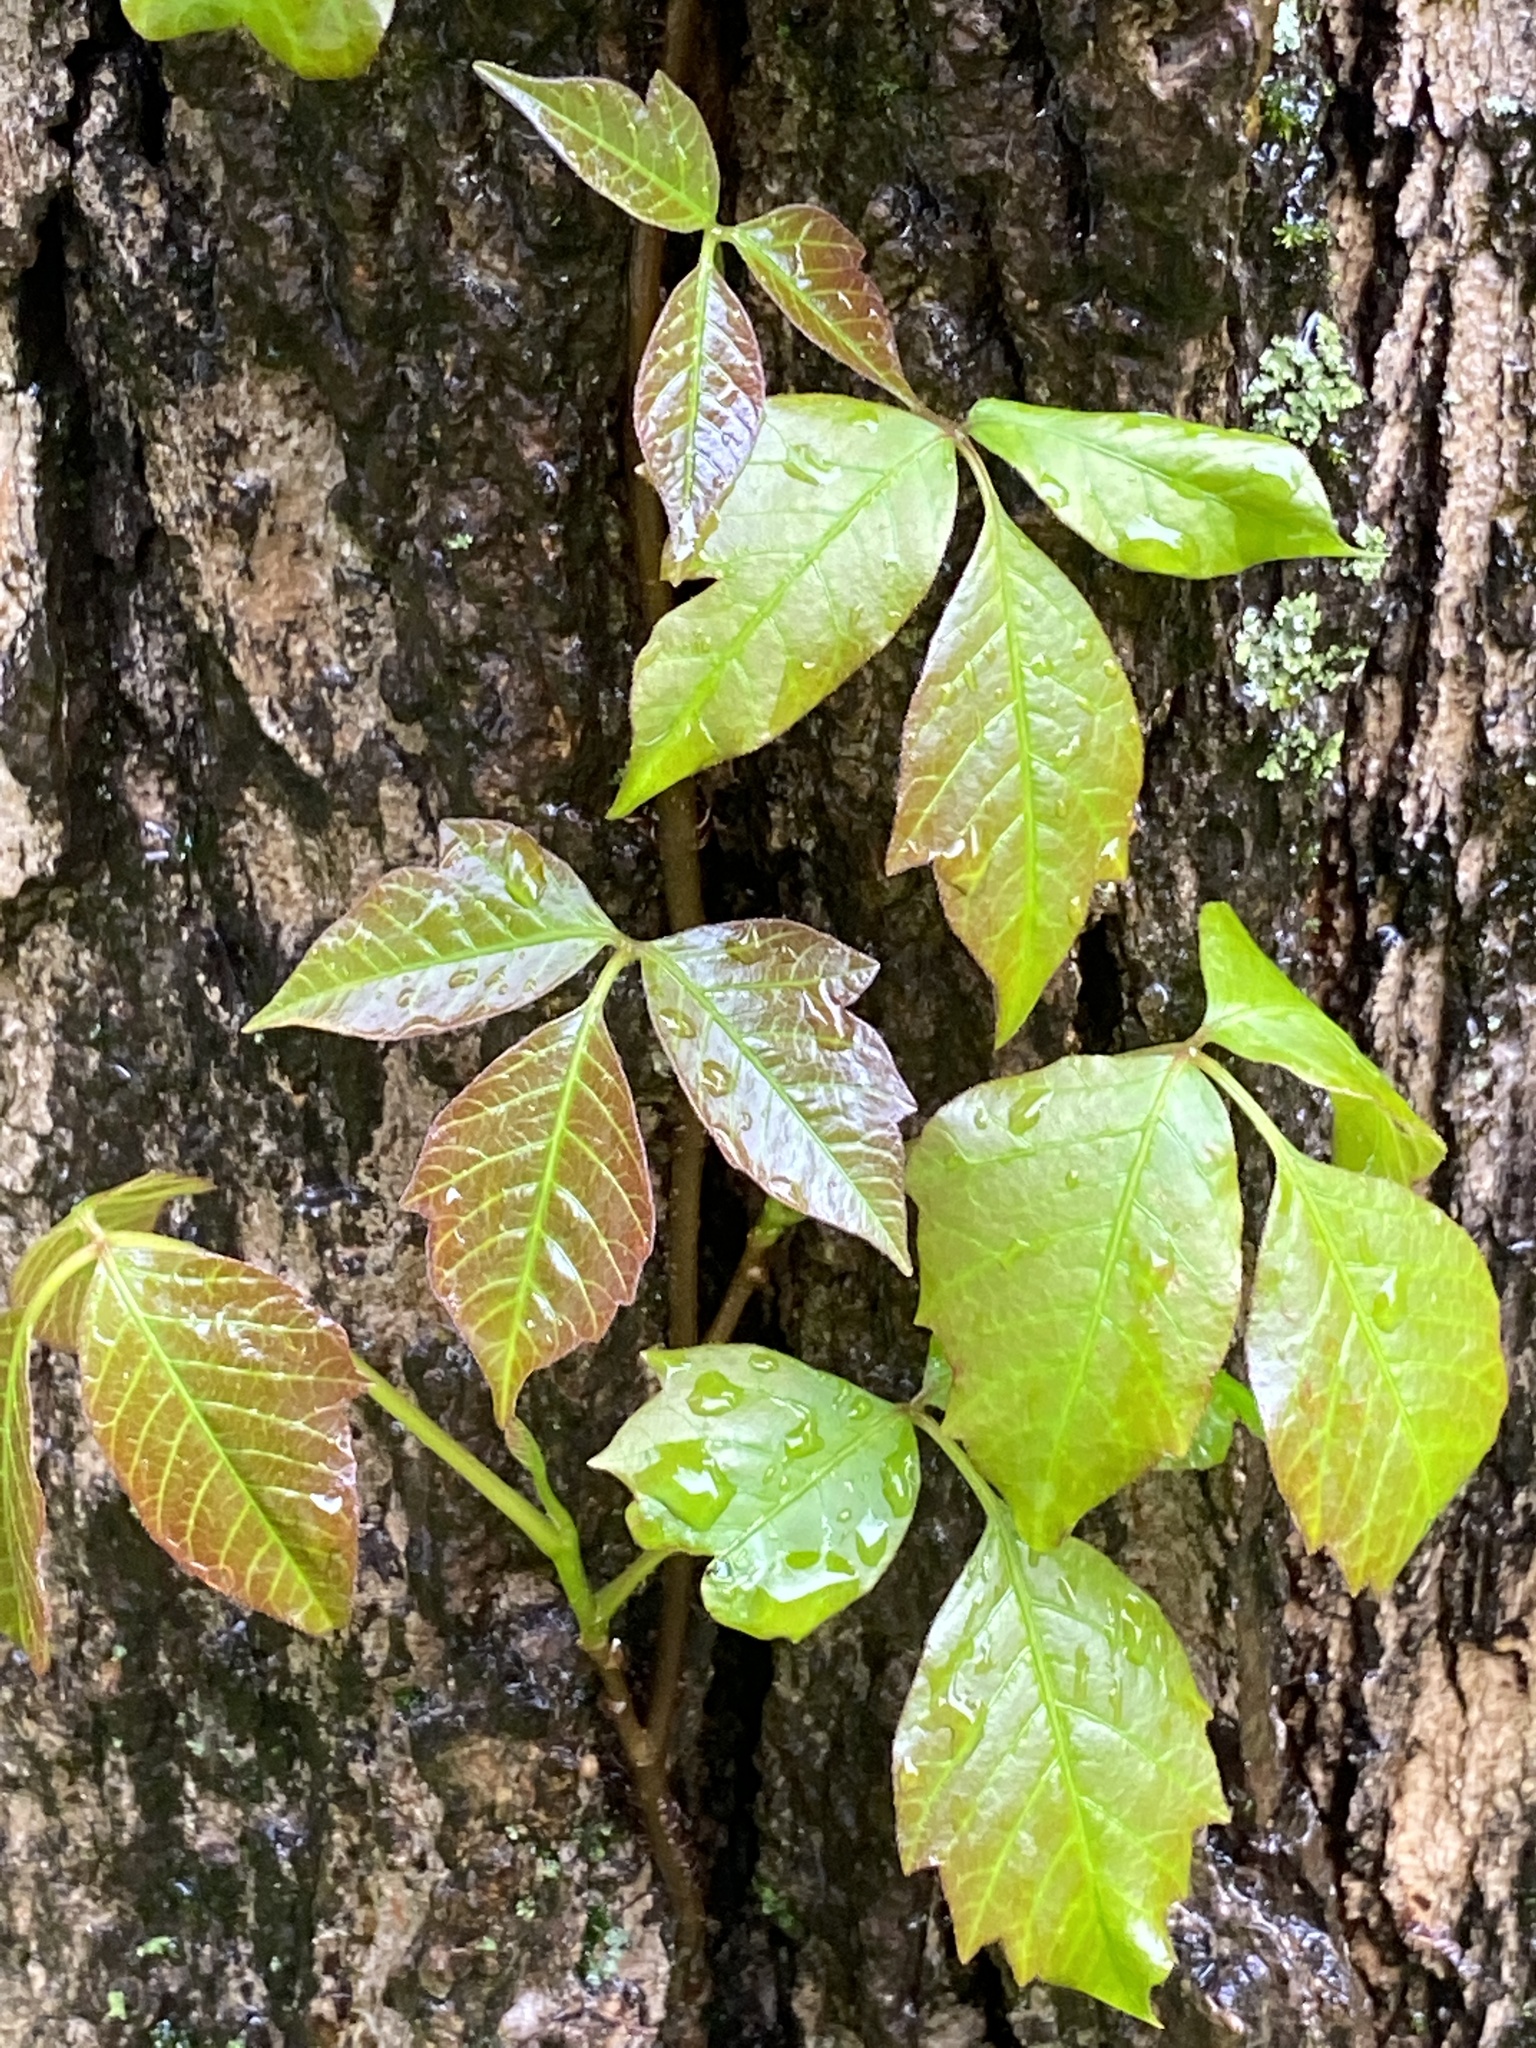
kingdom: Plantae
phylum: Tracheophyta
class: Magnoliopsida
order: Sapindales
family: Anacardiaceae
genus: Toxicodendron
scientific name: Toxicodendron radicans
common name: Poison ivy
